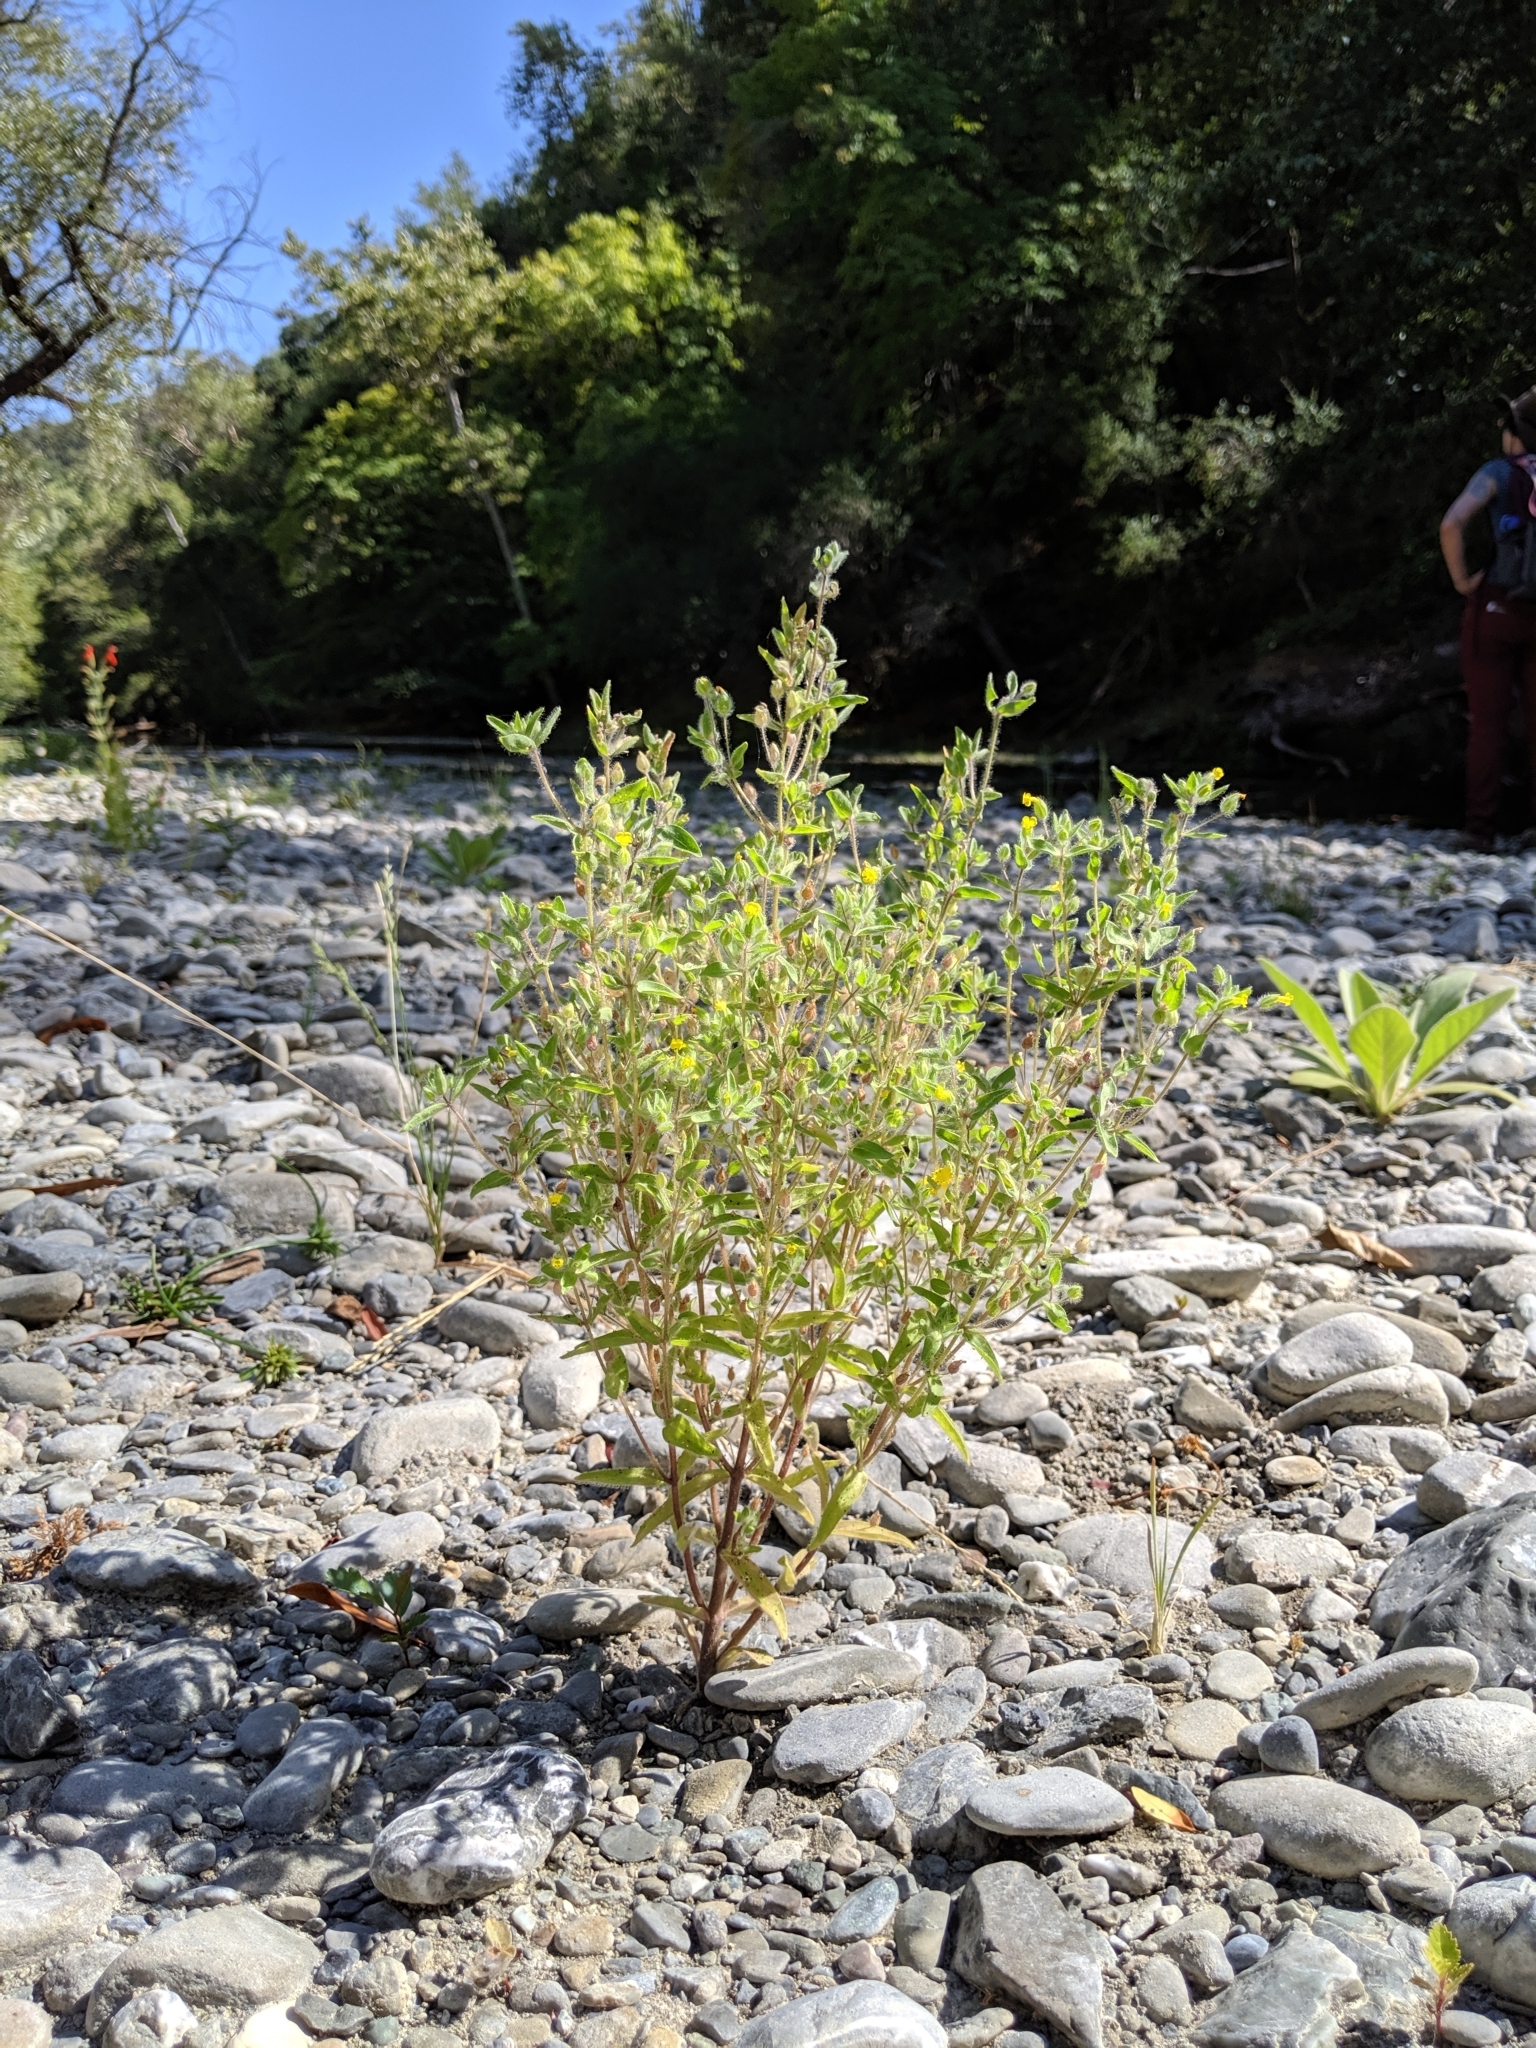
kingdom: Plantae
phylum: Tracheophyta
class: Magnoliopsida
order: Lamiales
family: Phrymaceae
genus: Mimetanthe
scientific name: Mimetanthe pilosa
